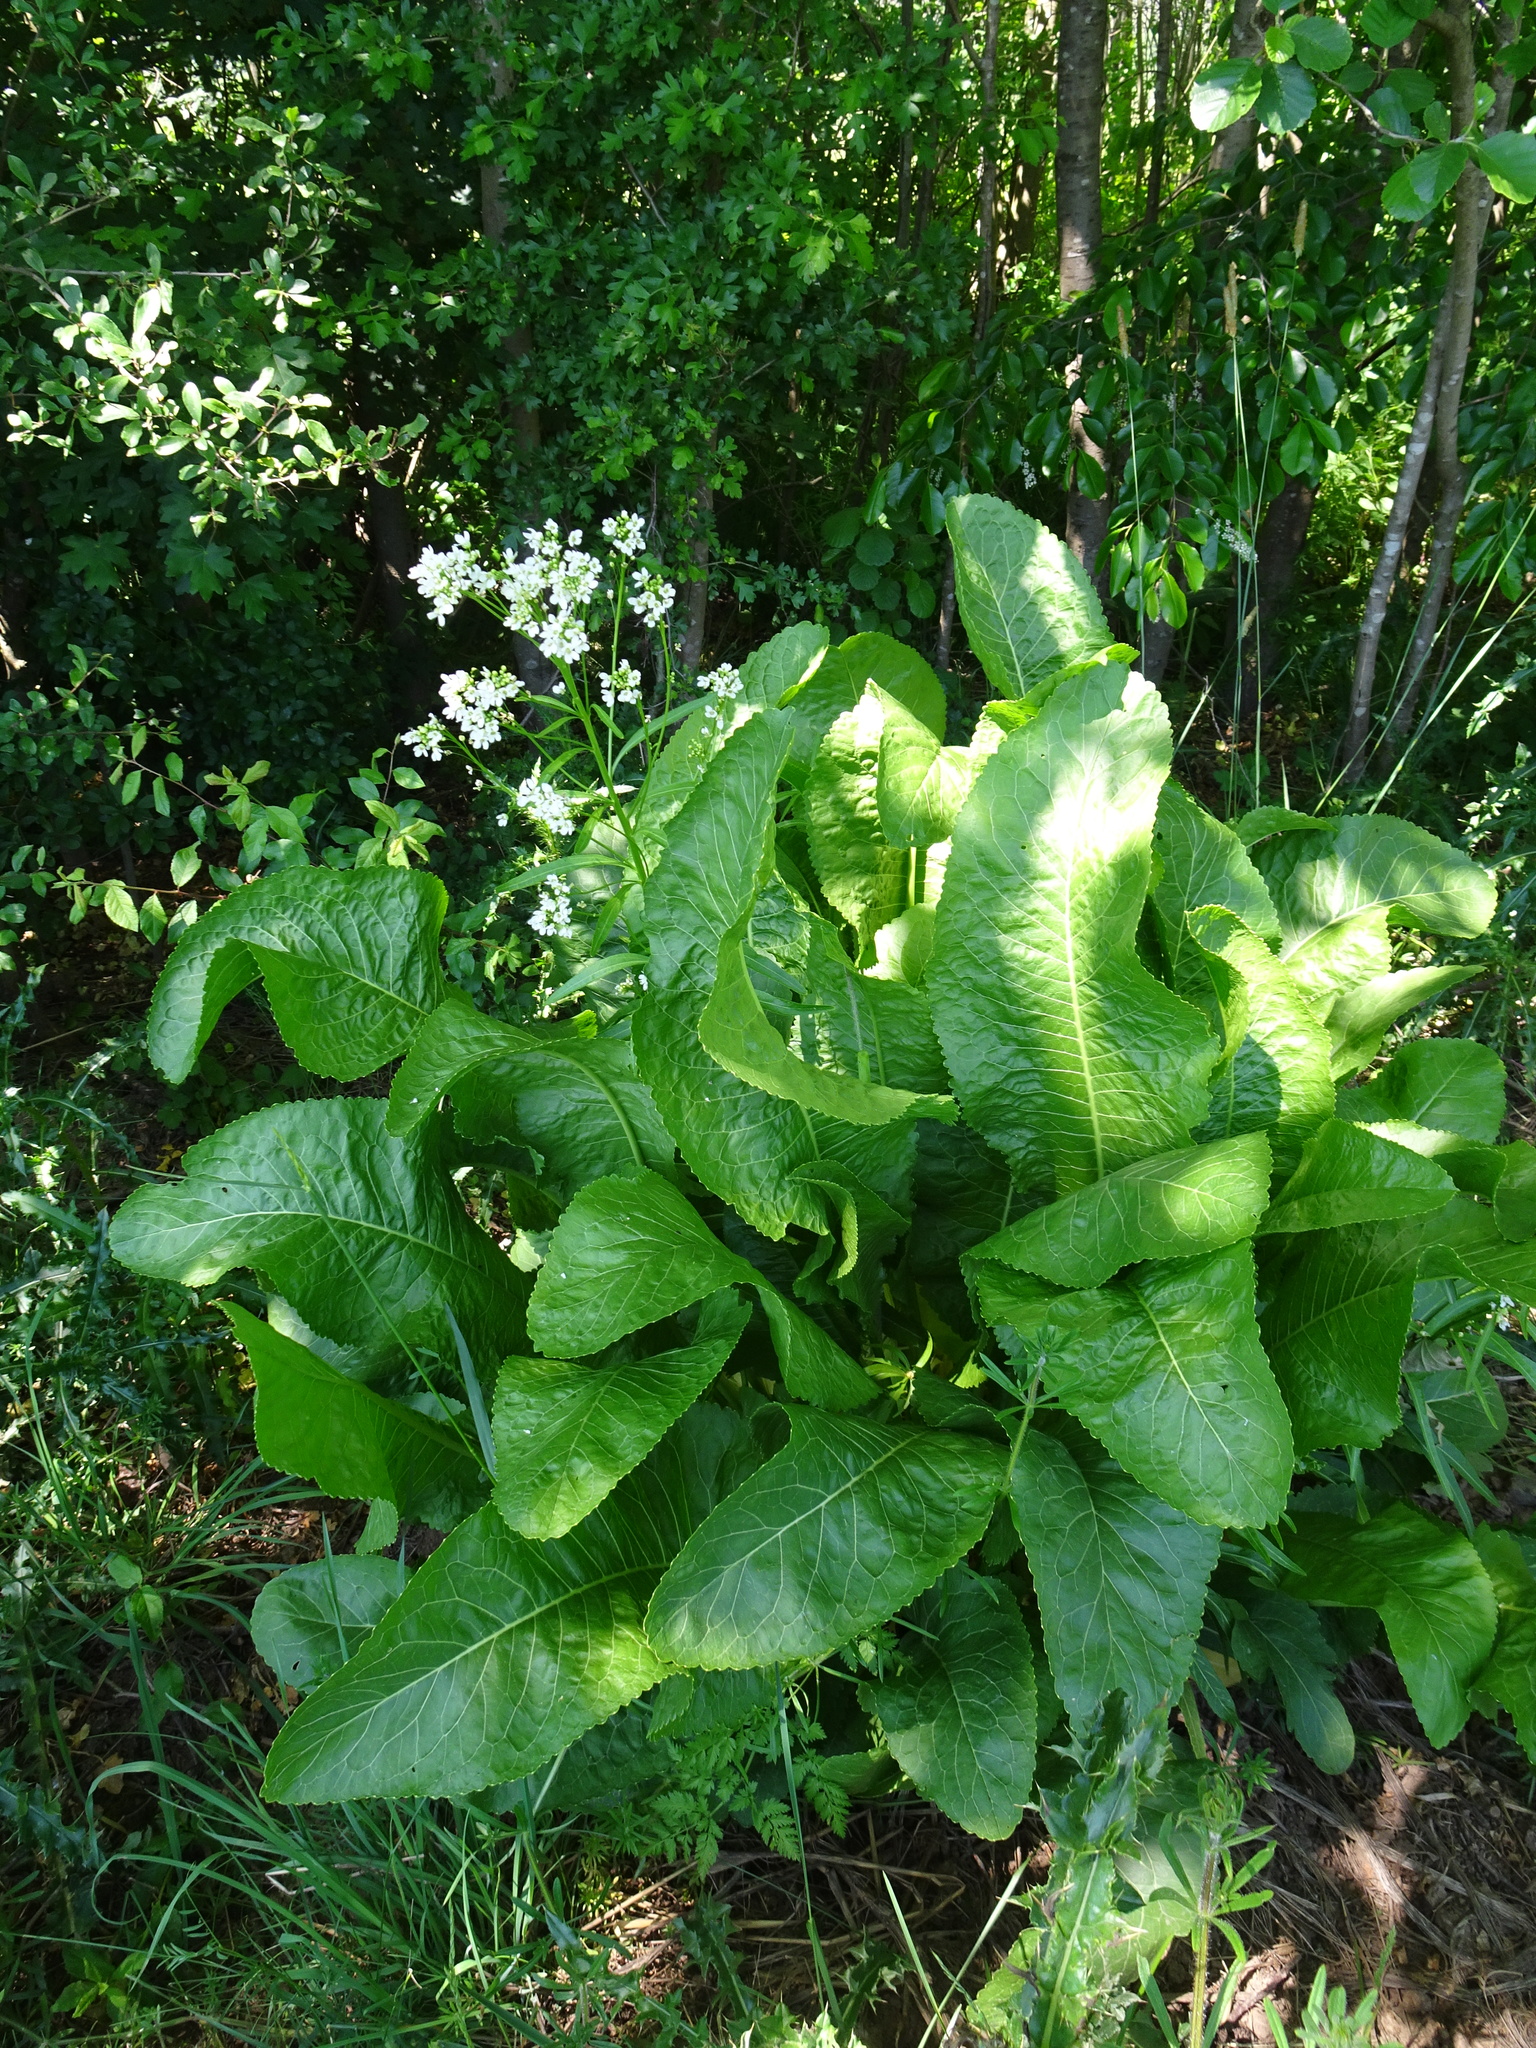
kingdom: Plantae
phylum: Tracheophyta
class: Magnoliopsida
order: Brassicales
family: Brassicaceae
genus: Armoracia
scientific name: Armoracia rusticana
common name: Horseradish
